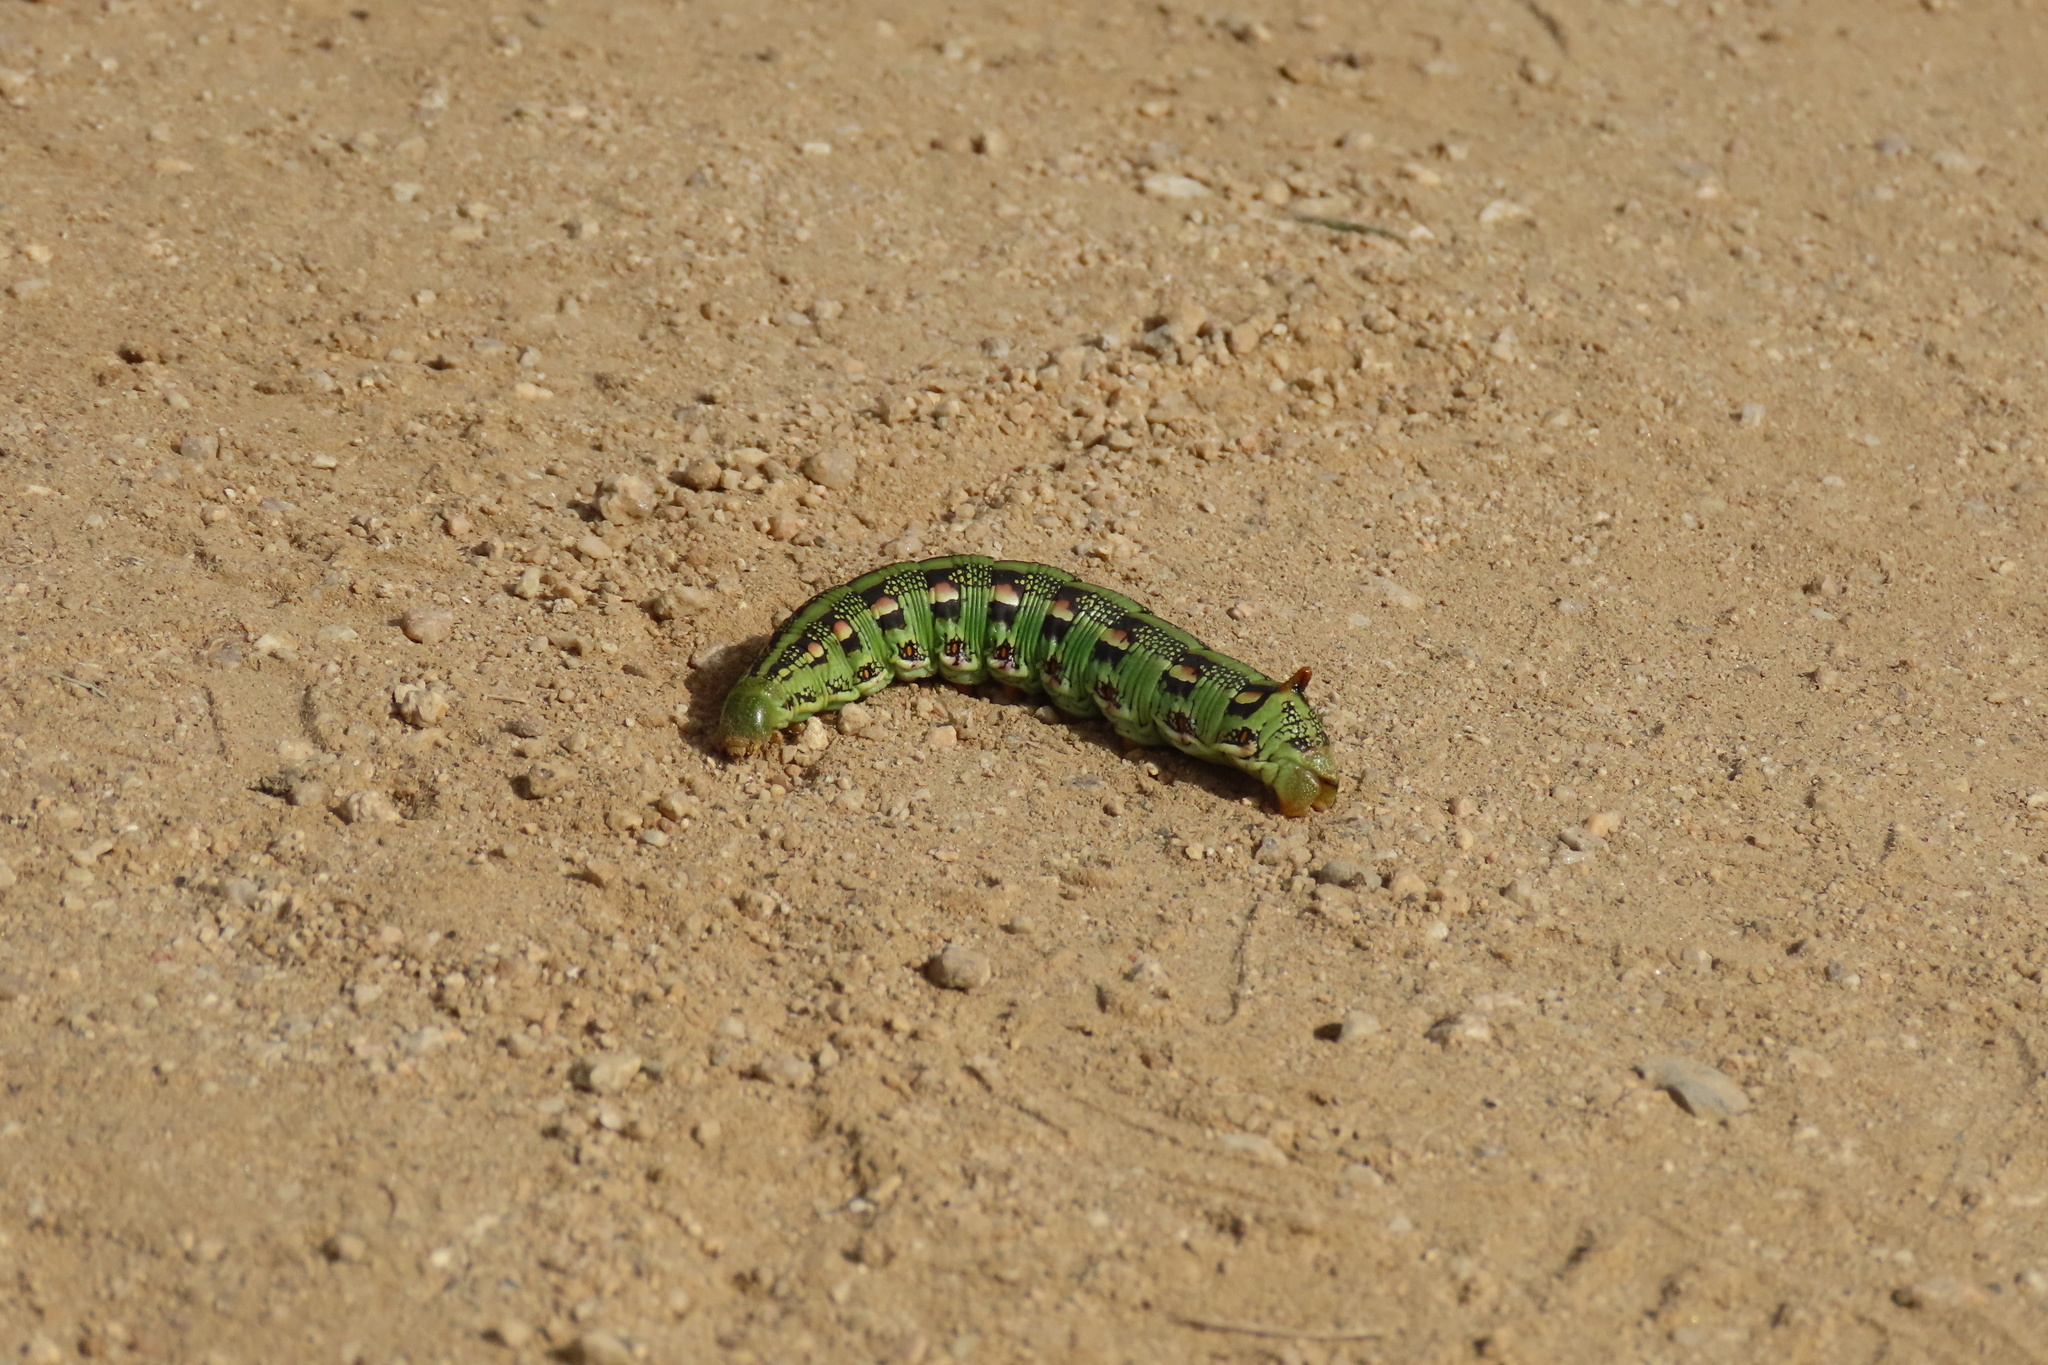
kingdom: Animalia
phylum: Arthropoda
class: Insecta
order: Lepidoptera
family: Sphingidae
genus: Hyles
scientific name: Hyles lineata
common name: White-lined sphinx
